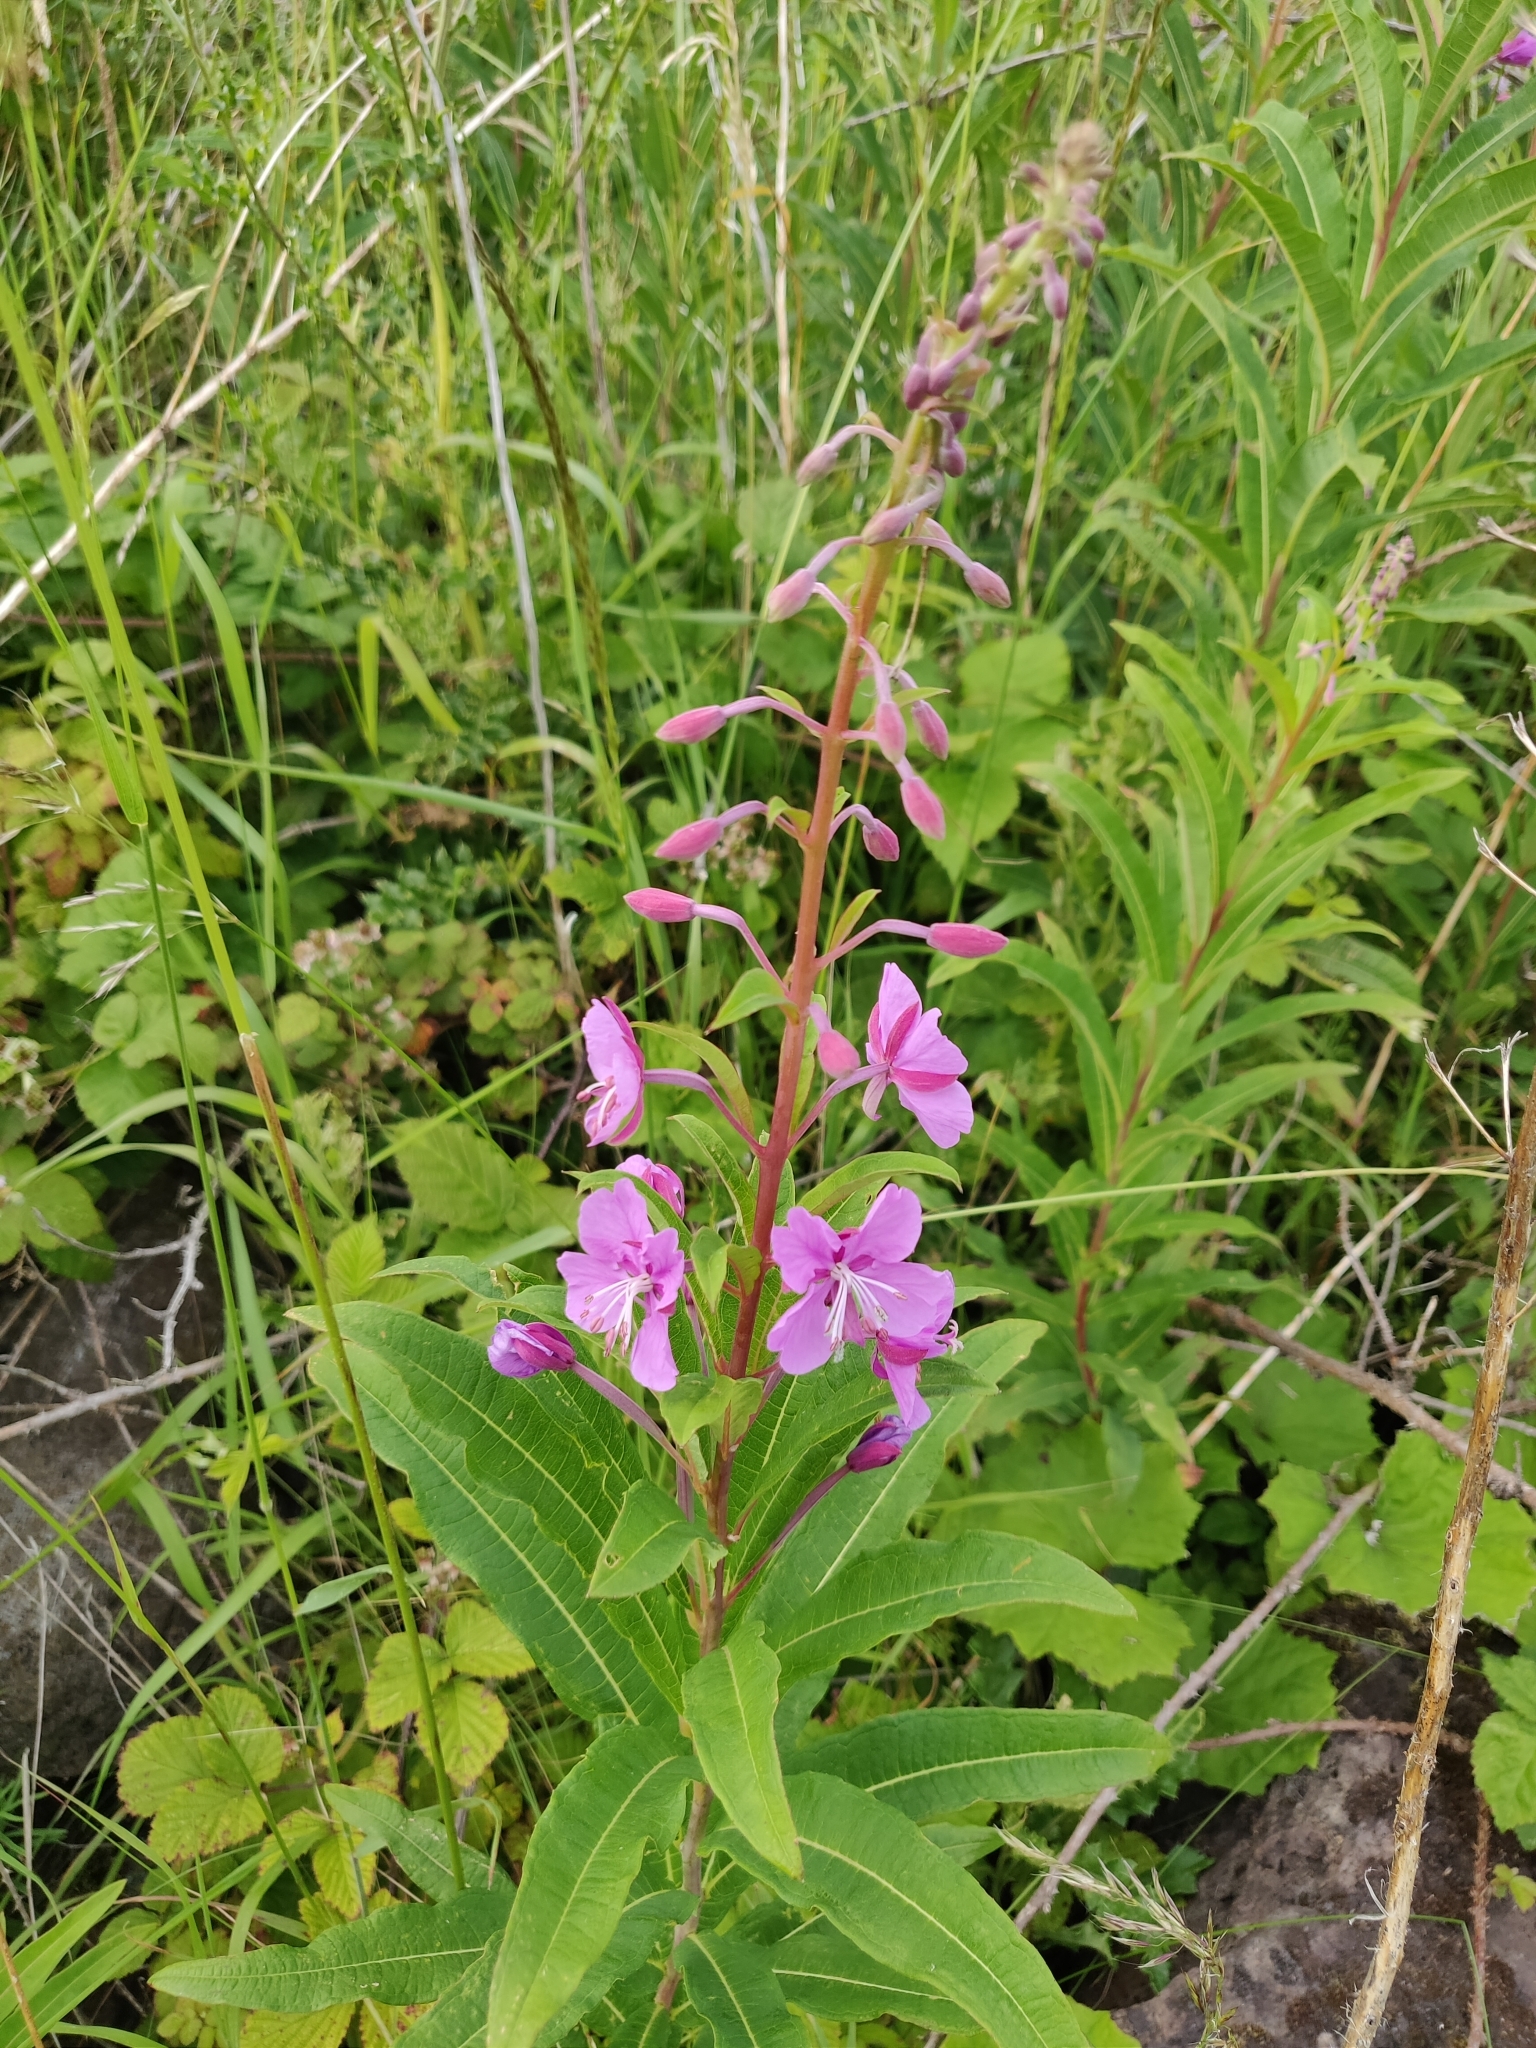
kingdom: Plantae
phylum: Tracheophyta
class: Magnoliopsida
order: Myrtales
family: Onagraceae
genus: Chamaenerion
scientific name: Chamaenerion angustifolium
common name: Fireweed
